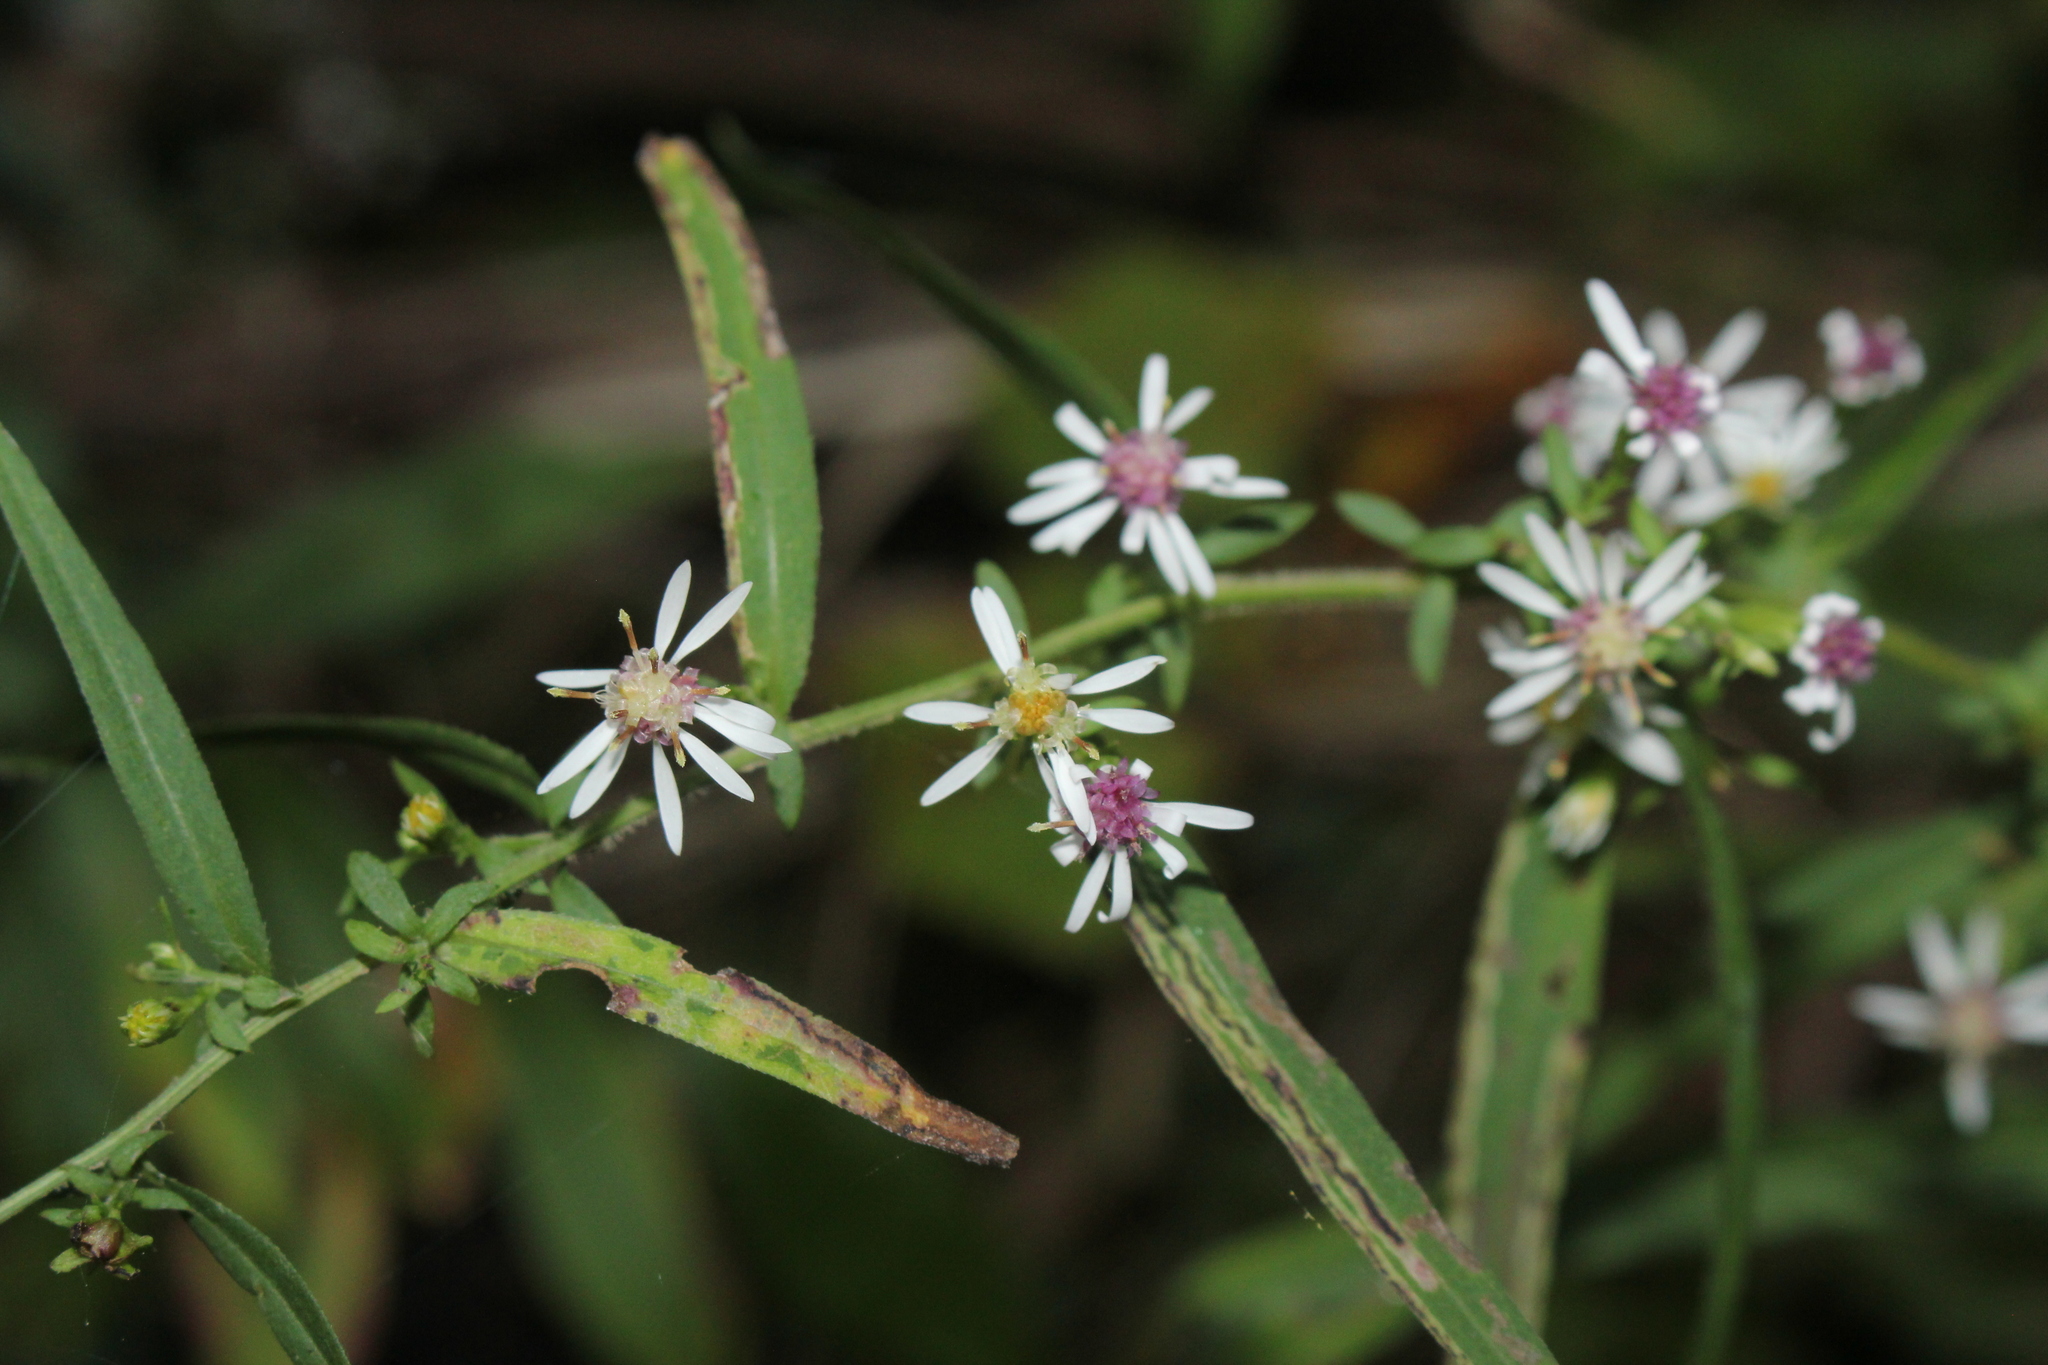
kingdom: Plantae
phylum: Tracheophyta
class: Magnoliopsida
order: Asterales
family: Asteraceae
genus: Symphyotrichum
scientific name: Symphyotrichum lateriflorum
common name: Calico aster
